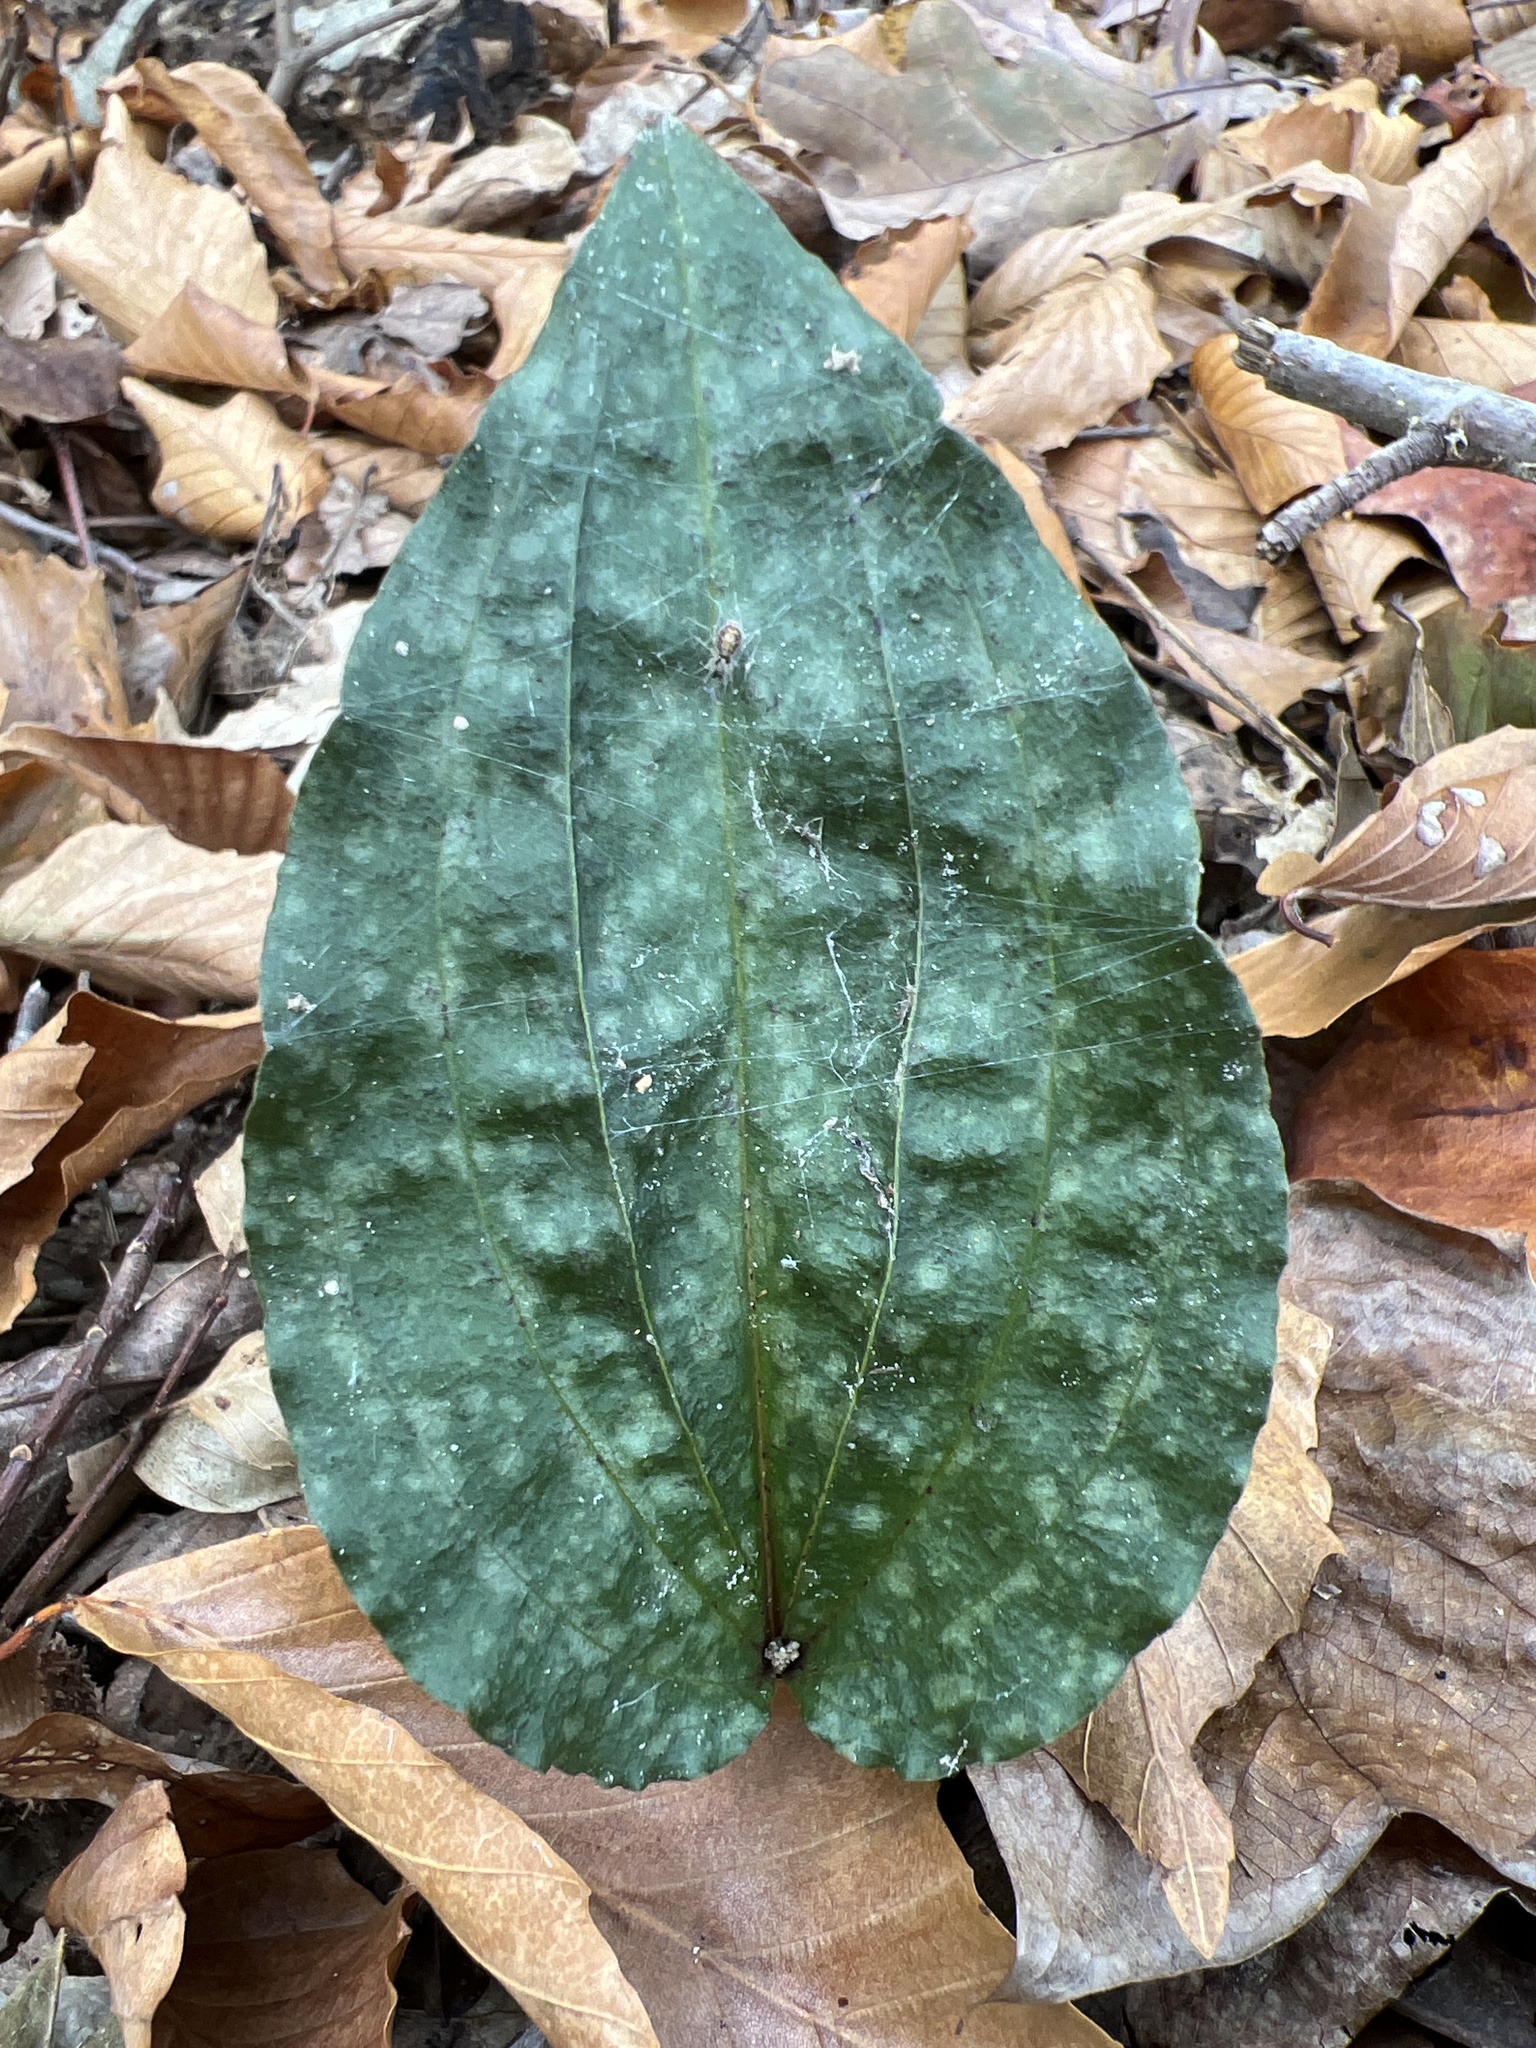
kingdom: Plantae
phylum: Tracheophyta
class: Liliopsida
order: Asparagales
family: Orchidaceae
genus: Tipularia
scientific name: Tipularia discolor
